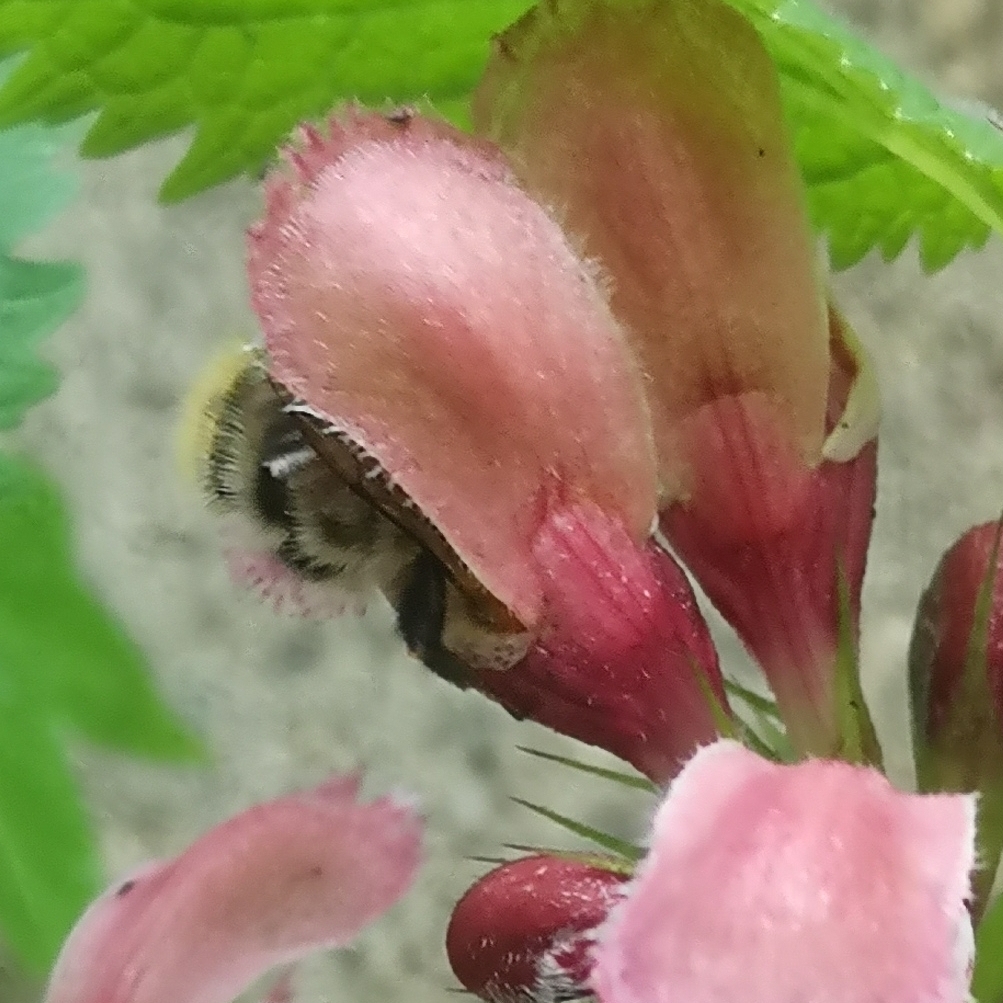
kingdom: Plantae
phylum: Tracheophyta
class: Magnoliopsida
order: Lamiales
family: Lamiaceae
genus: Lamium
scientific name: Lamium orvala
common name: Balm-leaved archangel
